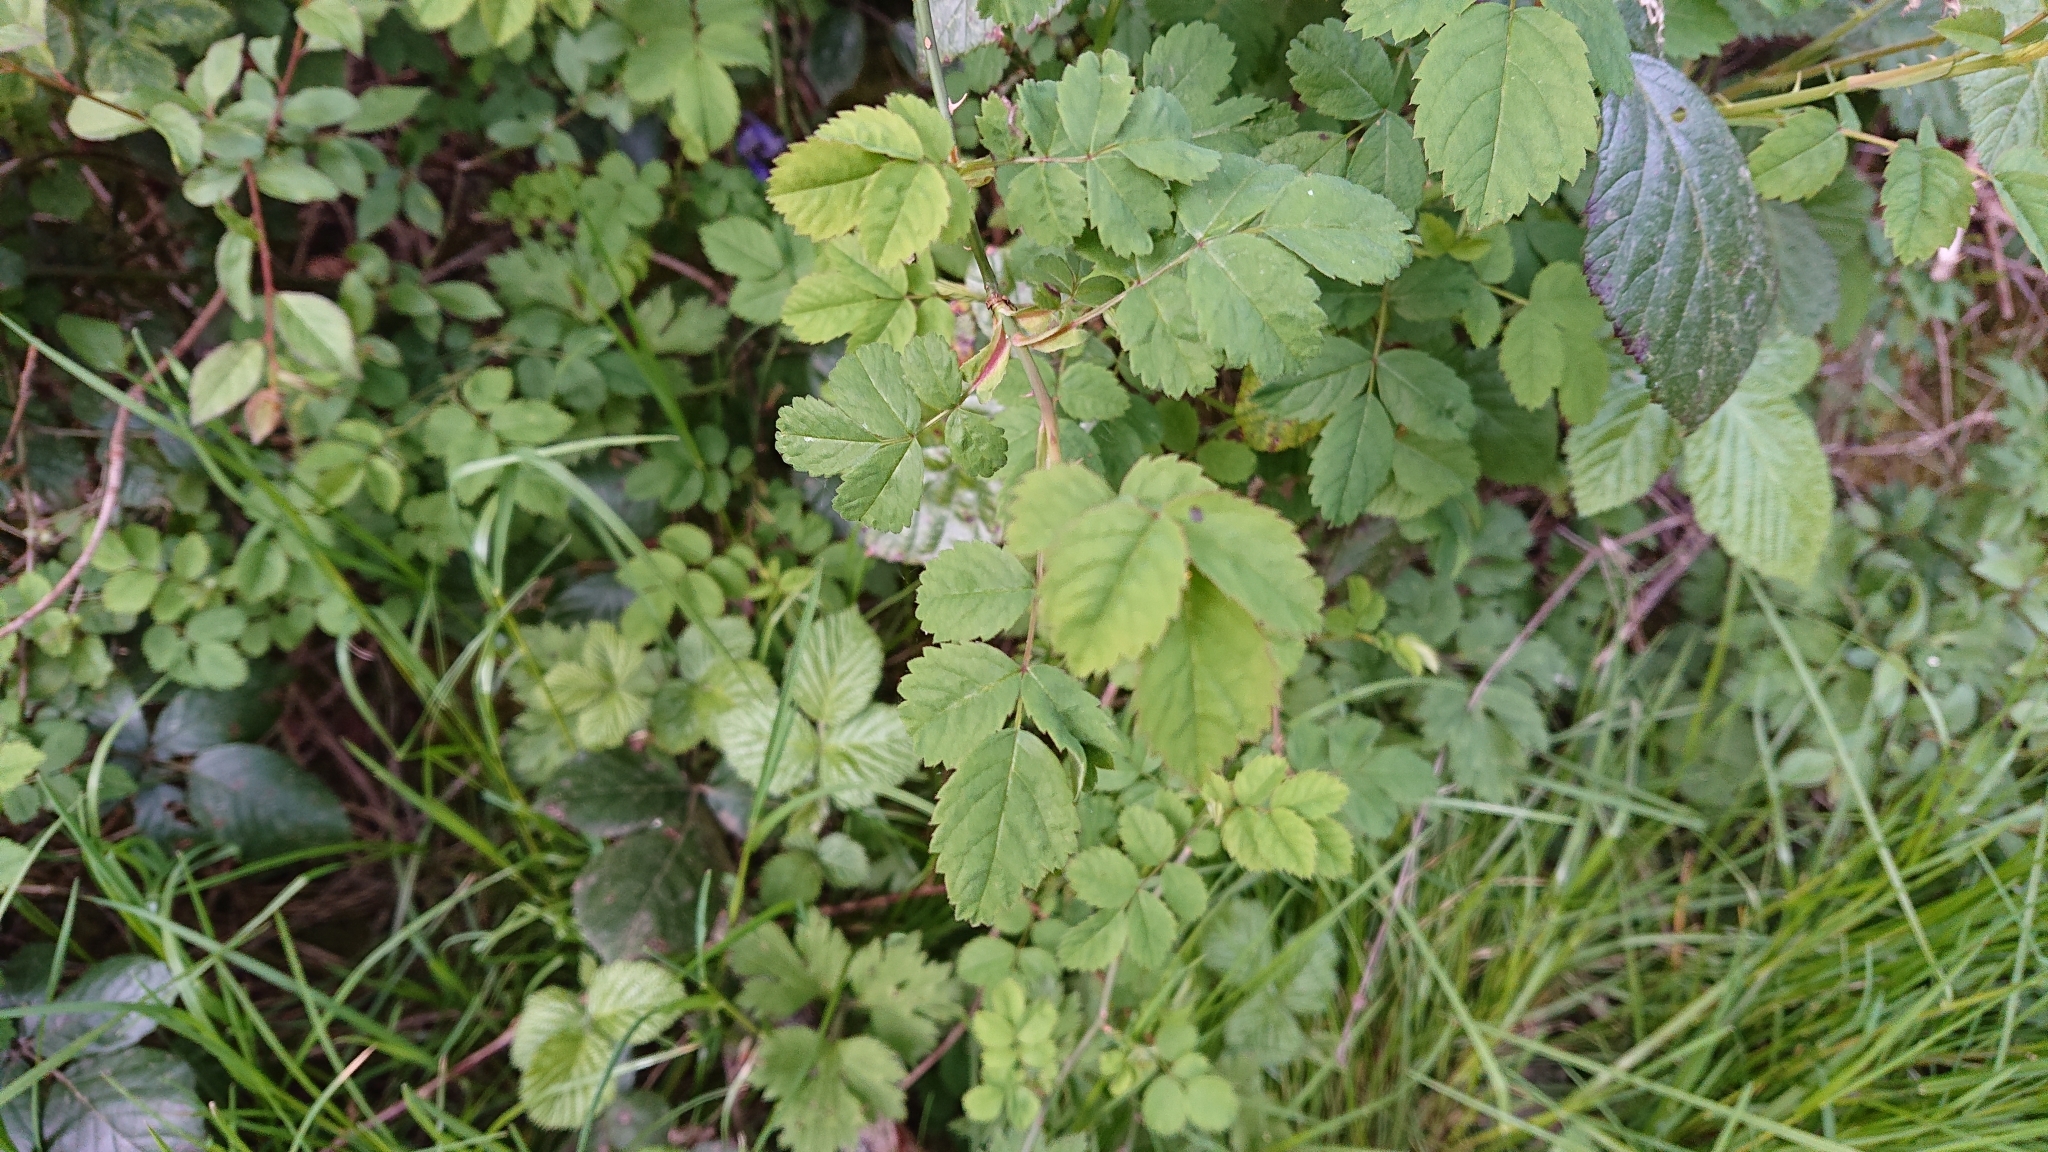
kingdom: Plantae
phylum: Tracheophyta
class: Magnoliopsida
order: Rosales
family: Rosaceae
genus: Rosa
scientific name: Rosa canina
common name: Dog rose
